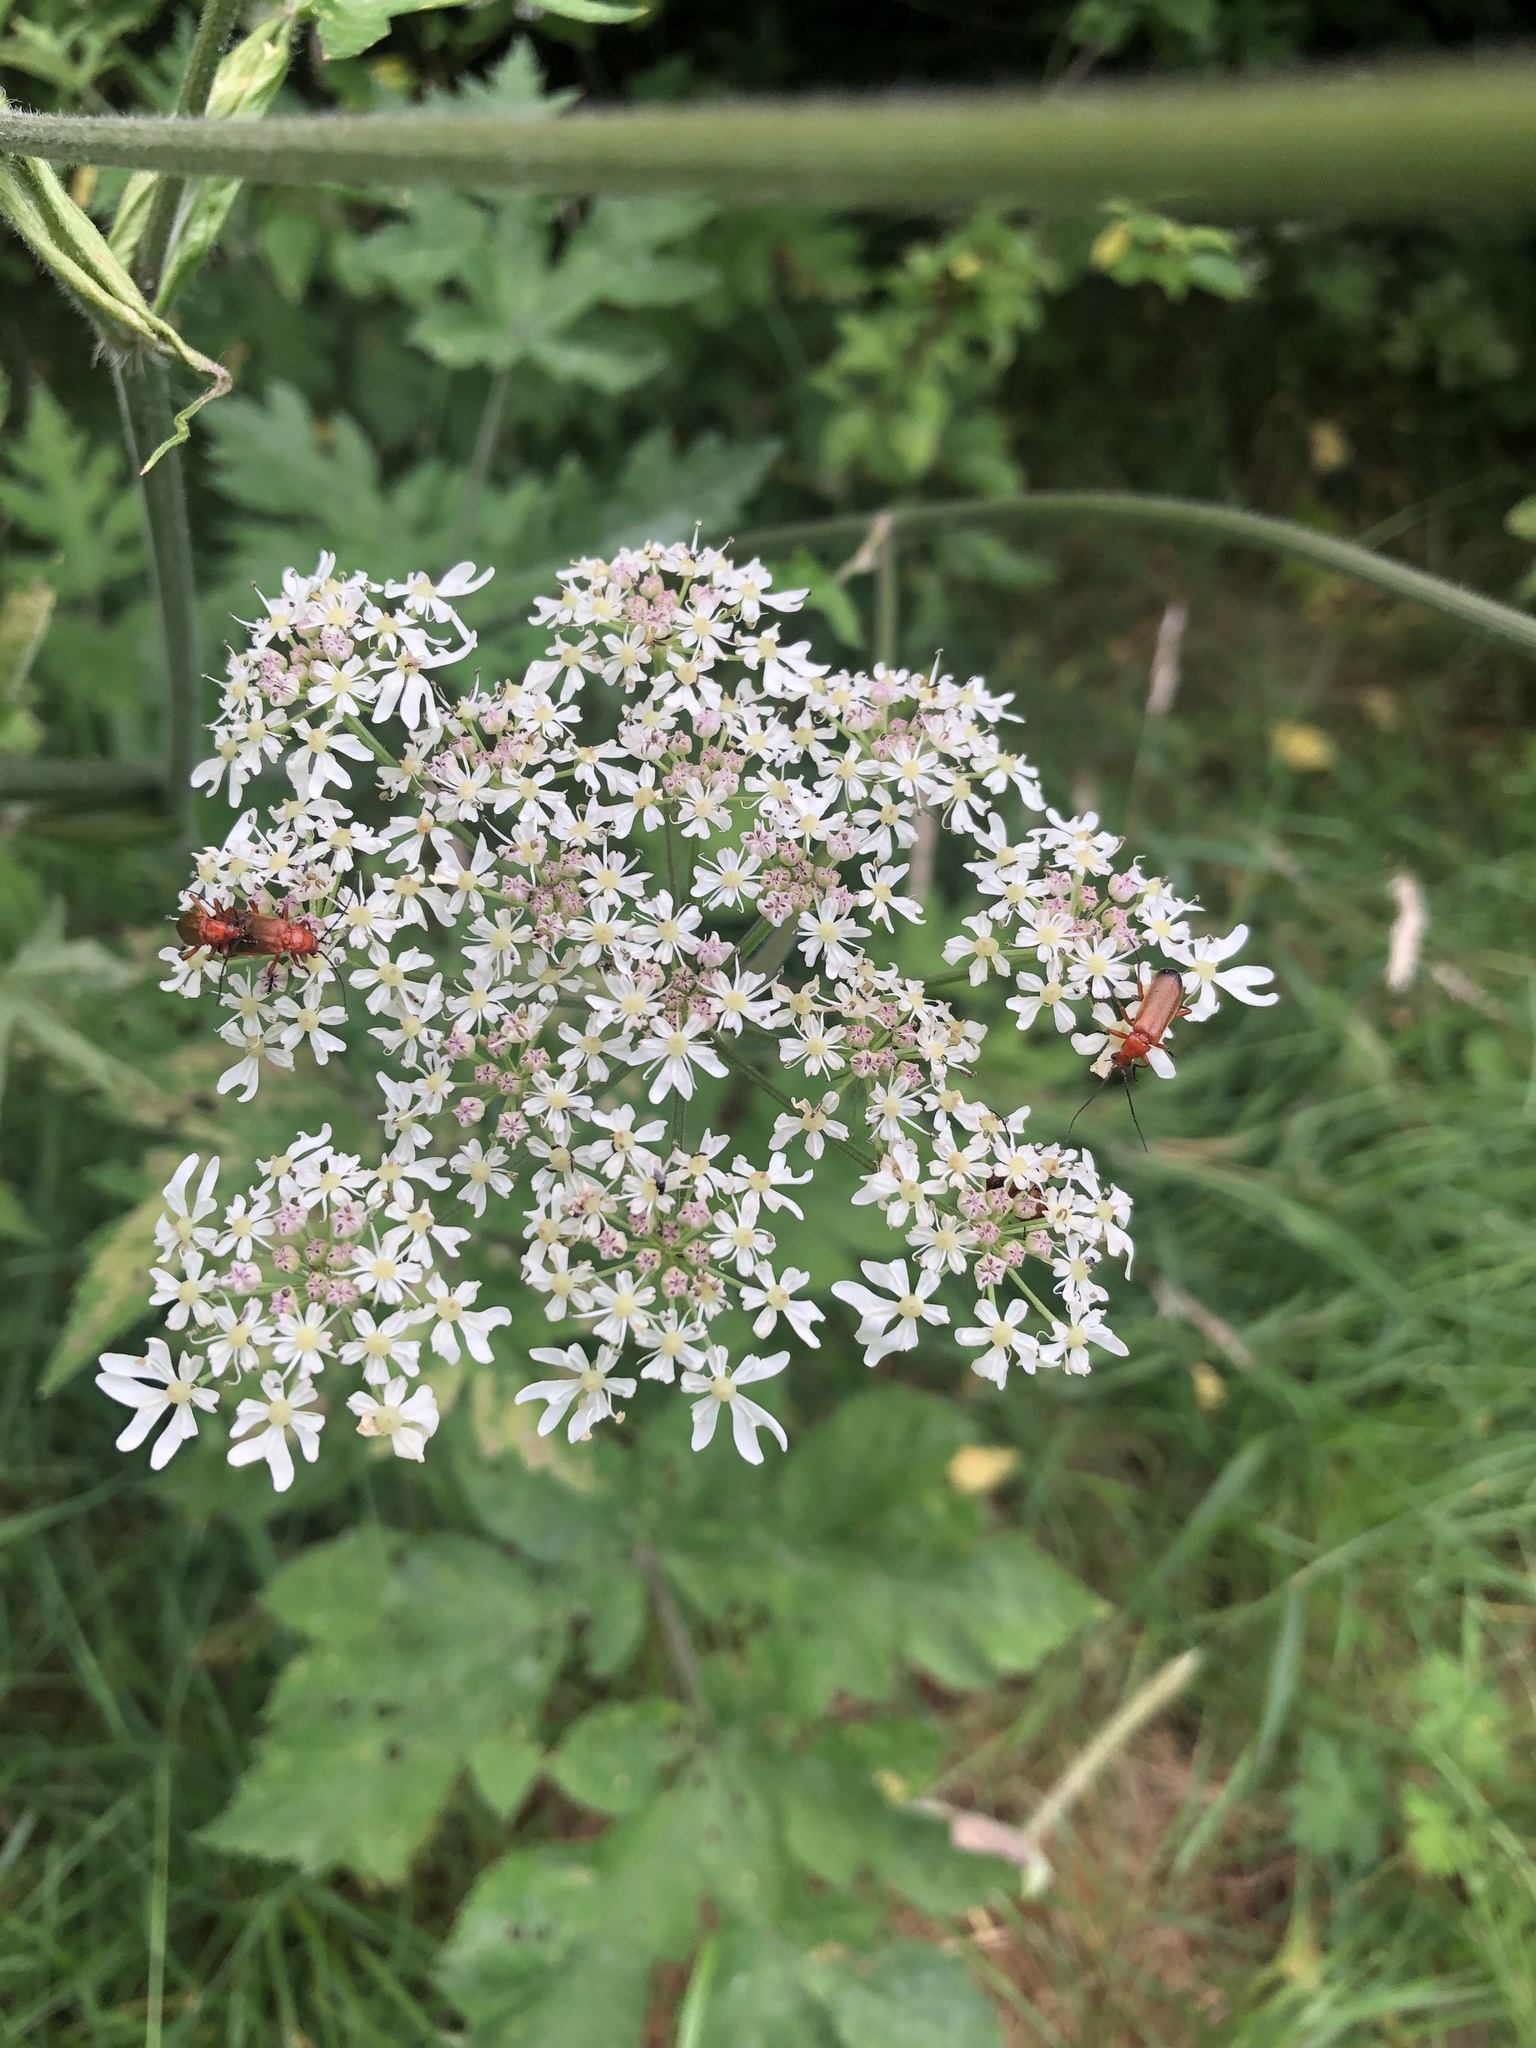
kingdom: Animalia
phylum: Arthropoda
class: Insecta
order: Coleoptera
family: Cantharidae
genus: Rhagonycha
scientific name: Rhagonycha fulva
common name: Common red soldier beetle
